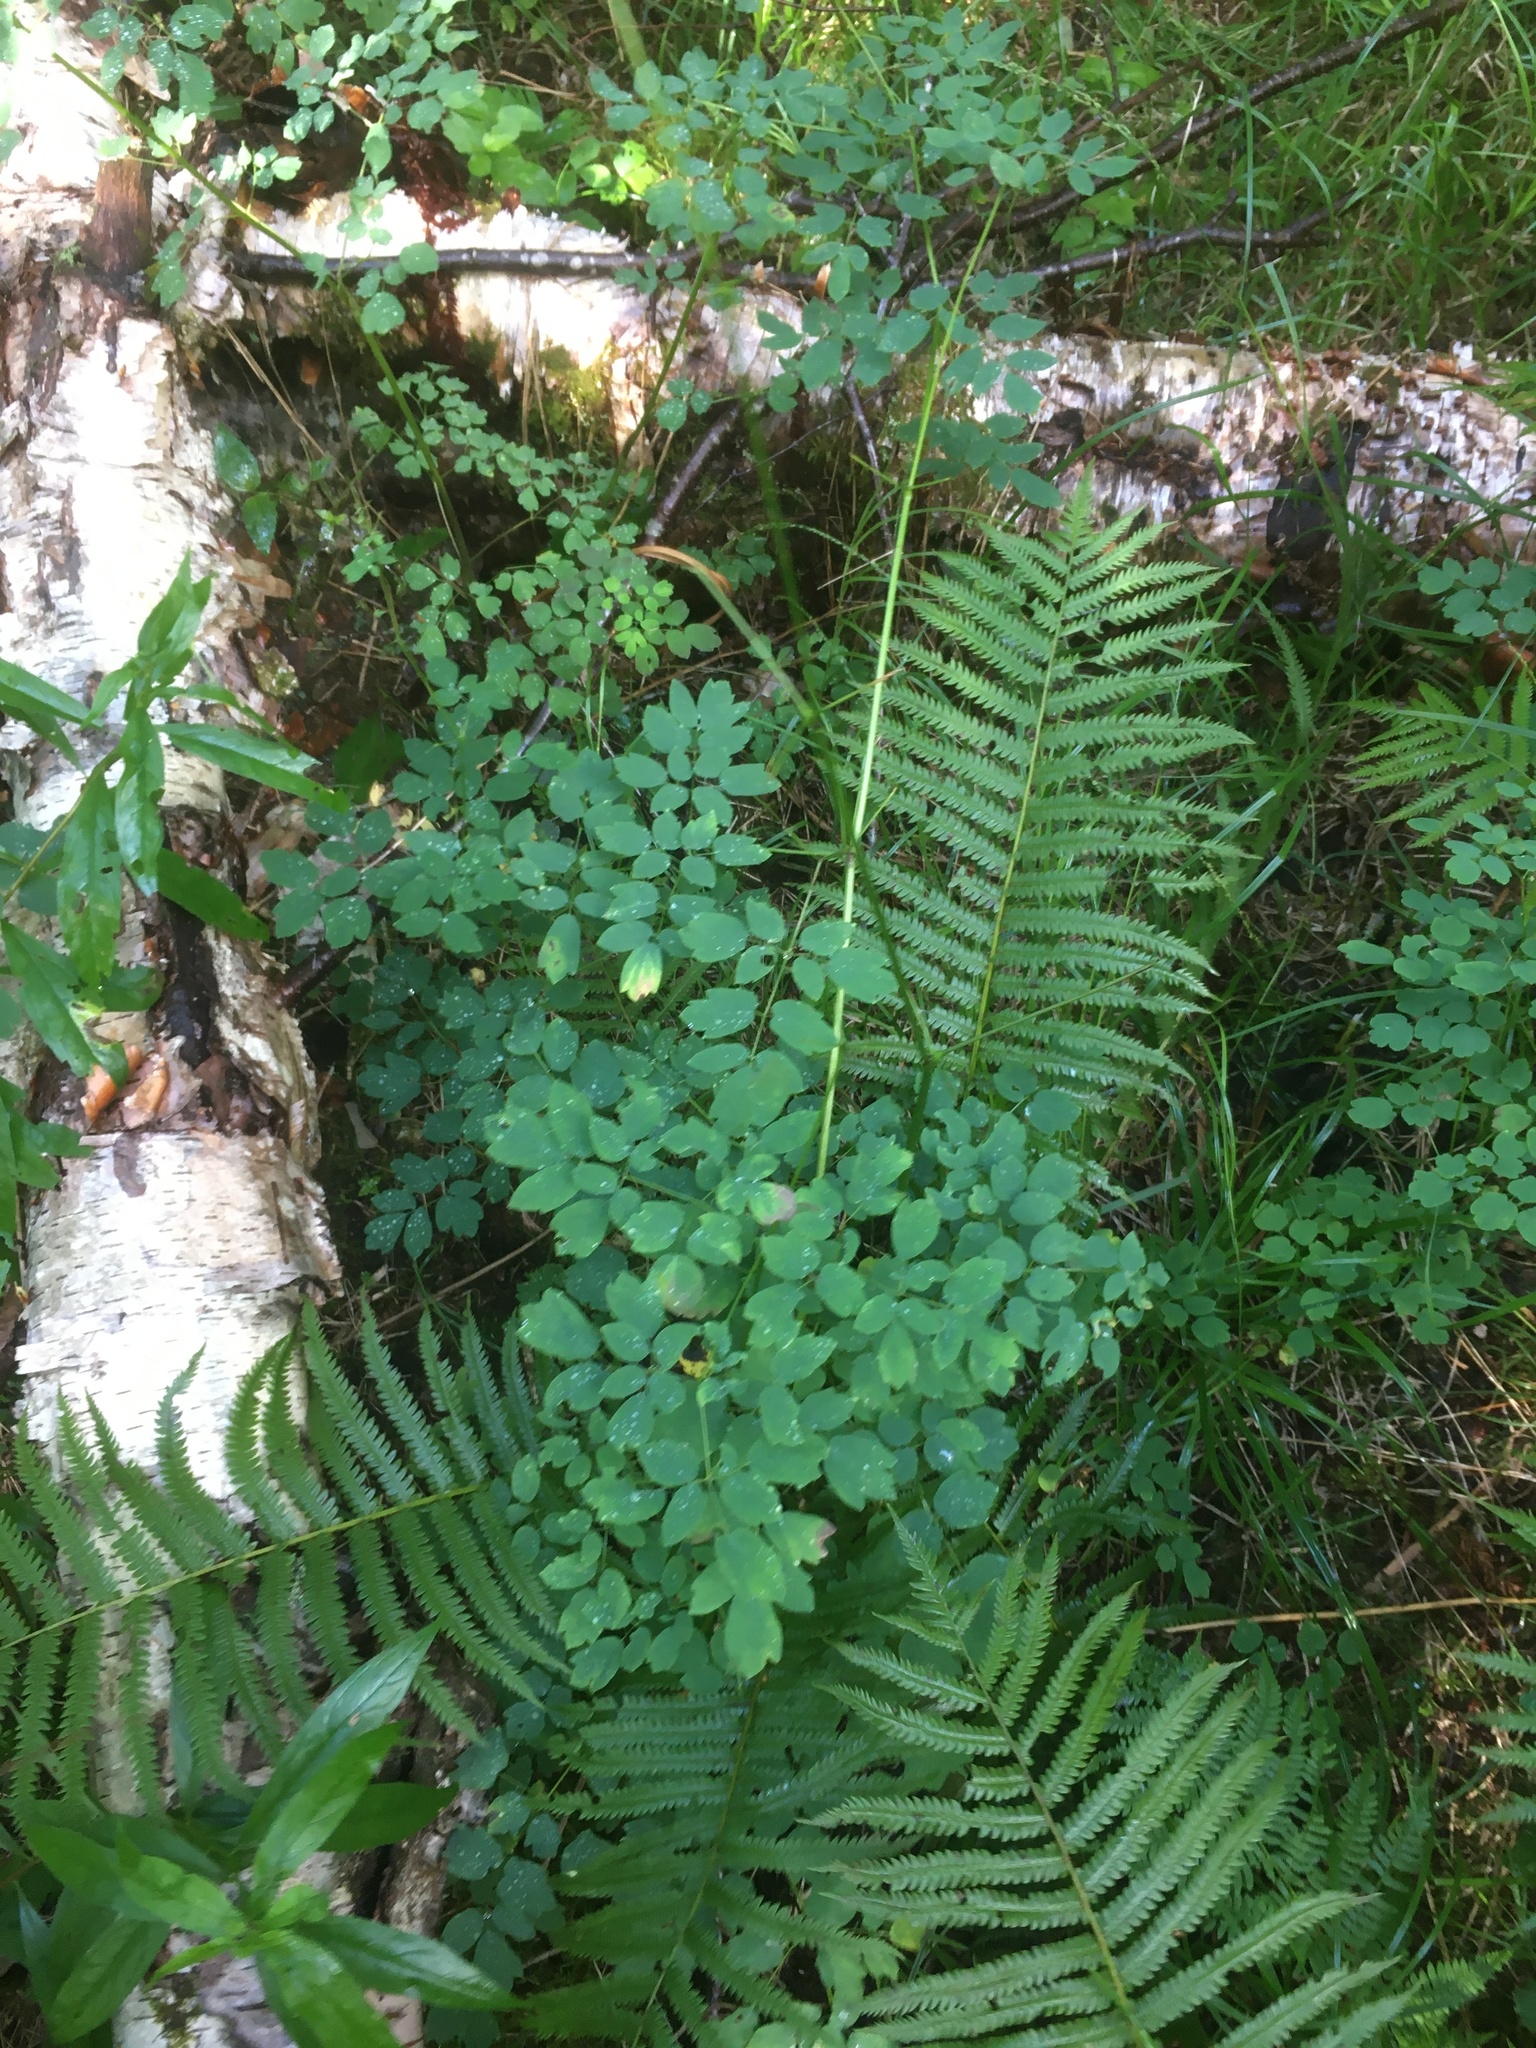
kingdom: Plantae
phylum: Tracheophyta
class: Magnoliopsida
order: Ranunculales
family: Ranunculaceae
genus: Thalictrum
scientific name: Thalictrum pubescens
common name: King-of-the-meadow
